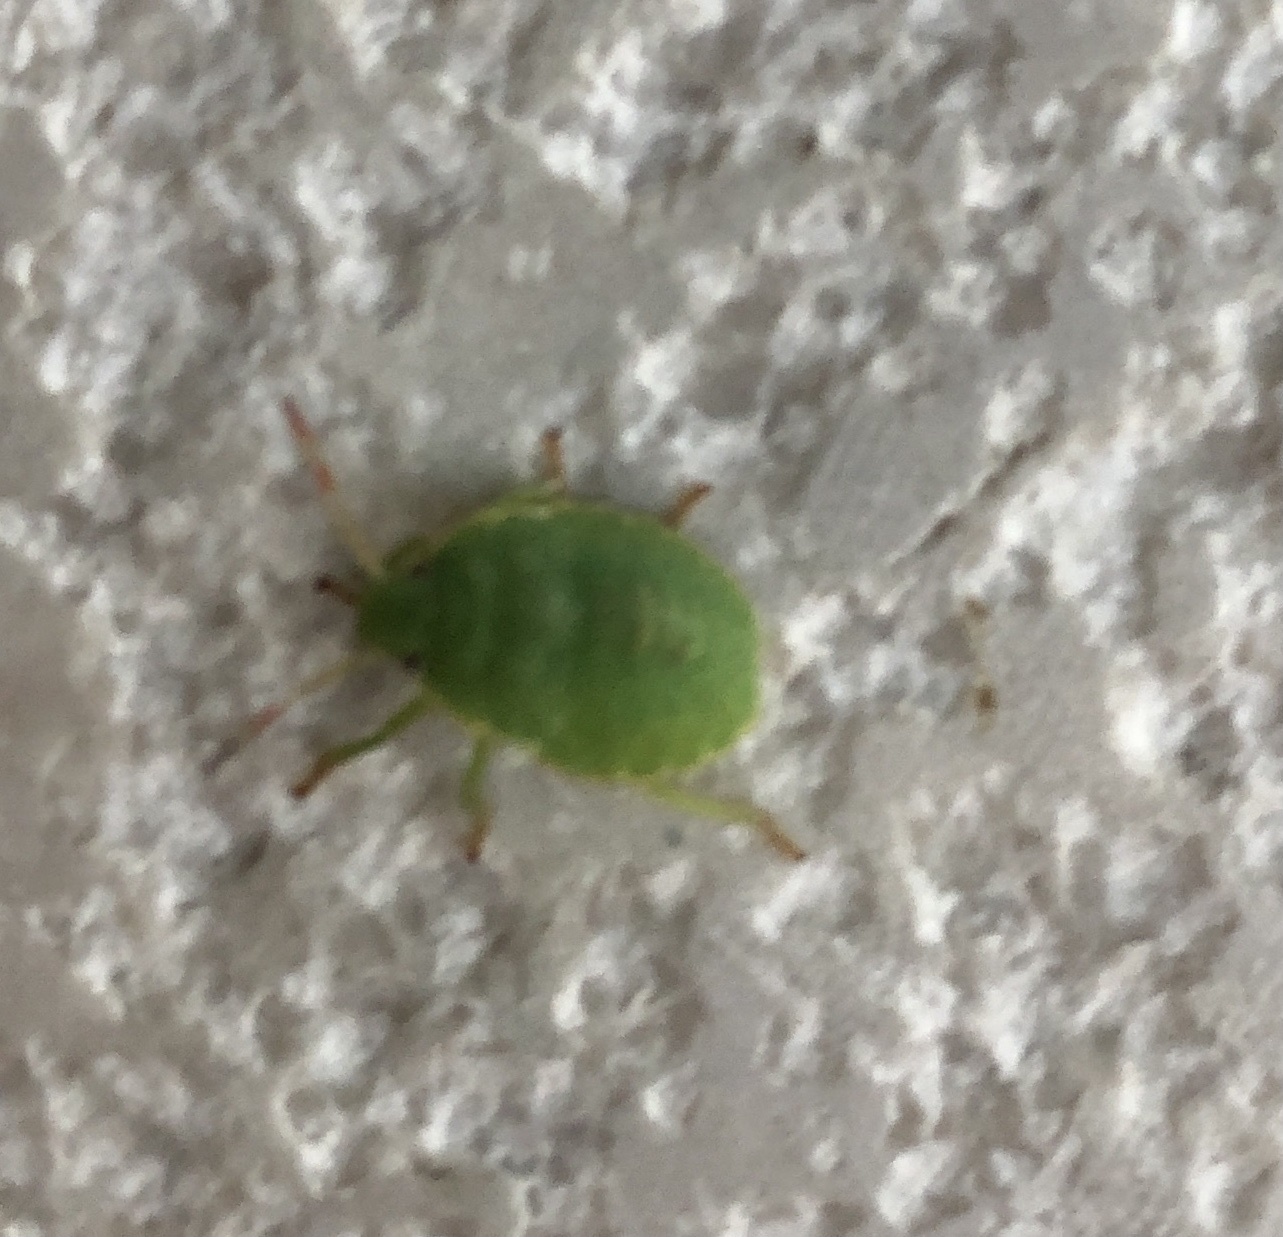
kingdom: Animalia
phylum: Arthropoda
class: Insecta
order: Hemiptera
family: Pentatomidae
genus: Palomena
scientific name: Palomena prasina
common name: Green shieldbug
